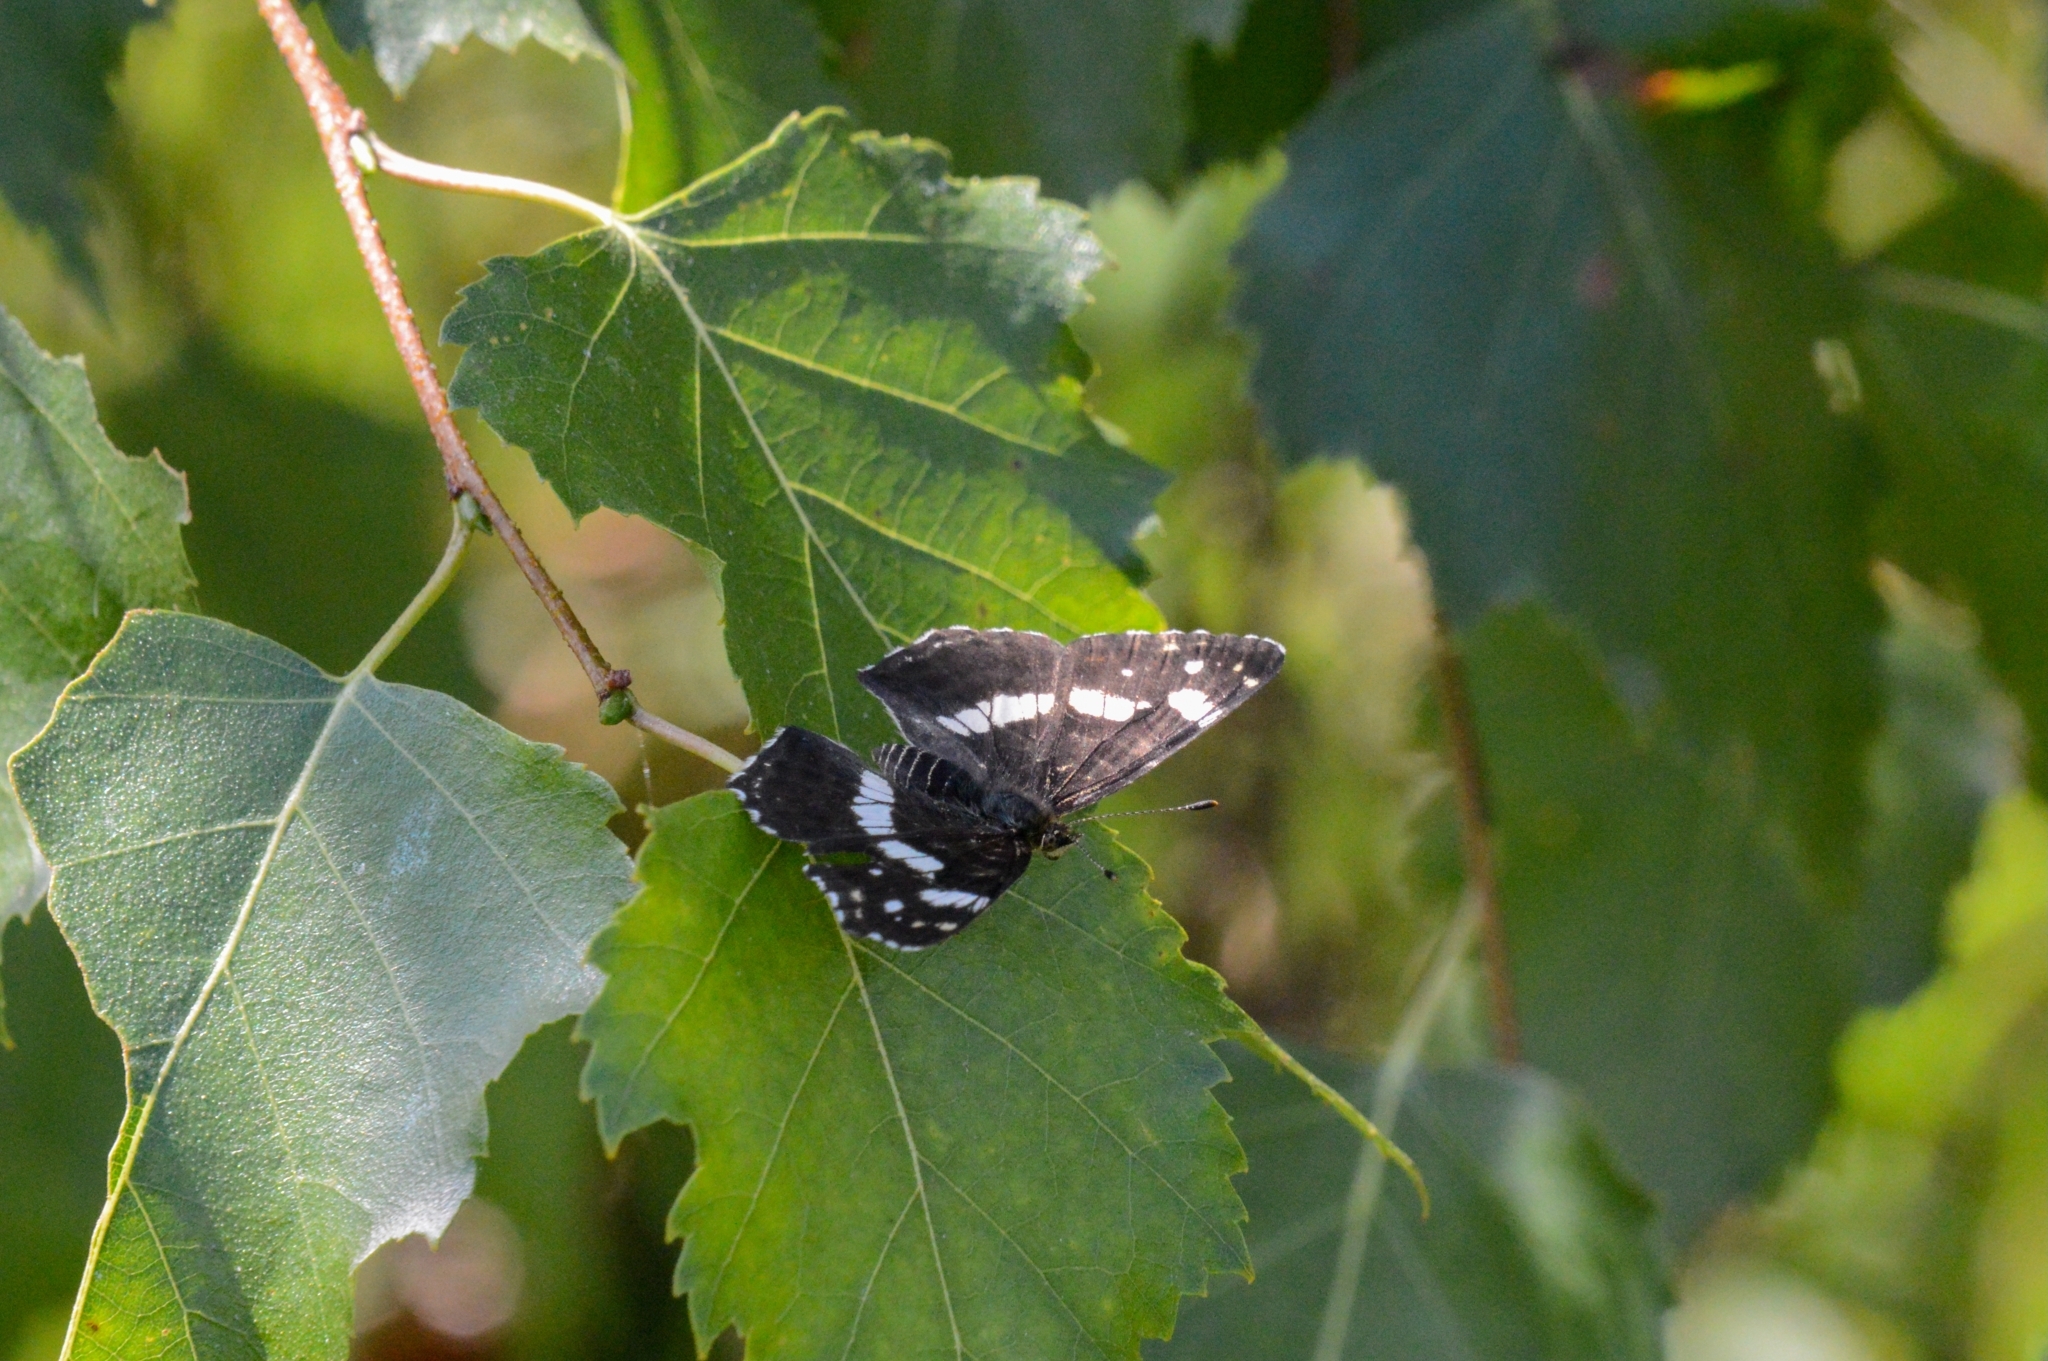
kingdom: Animalia
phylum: Arthropoda
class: Insecta
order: Lepidoptera
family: Nymphalidae
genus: Araschnia
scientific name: Araschnia levana
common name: Map butterfly
